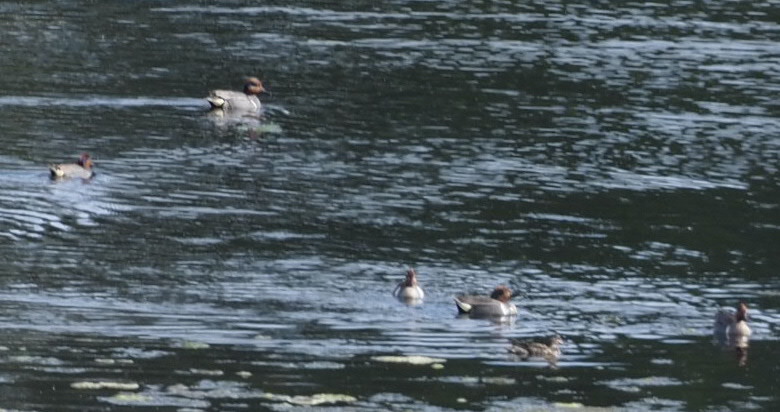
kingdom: Animalia
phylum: Chordata
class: Aves
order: Anseriformes
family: Anatidae
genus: Anas
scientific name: Anas crecca
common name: Eurasian teal
